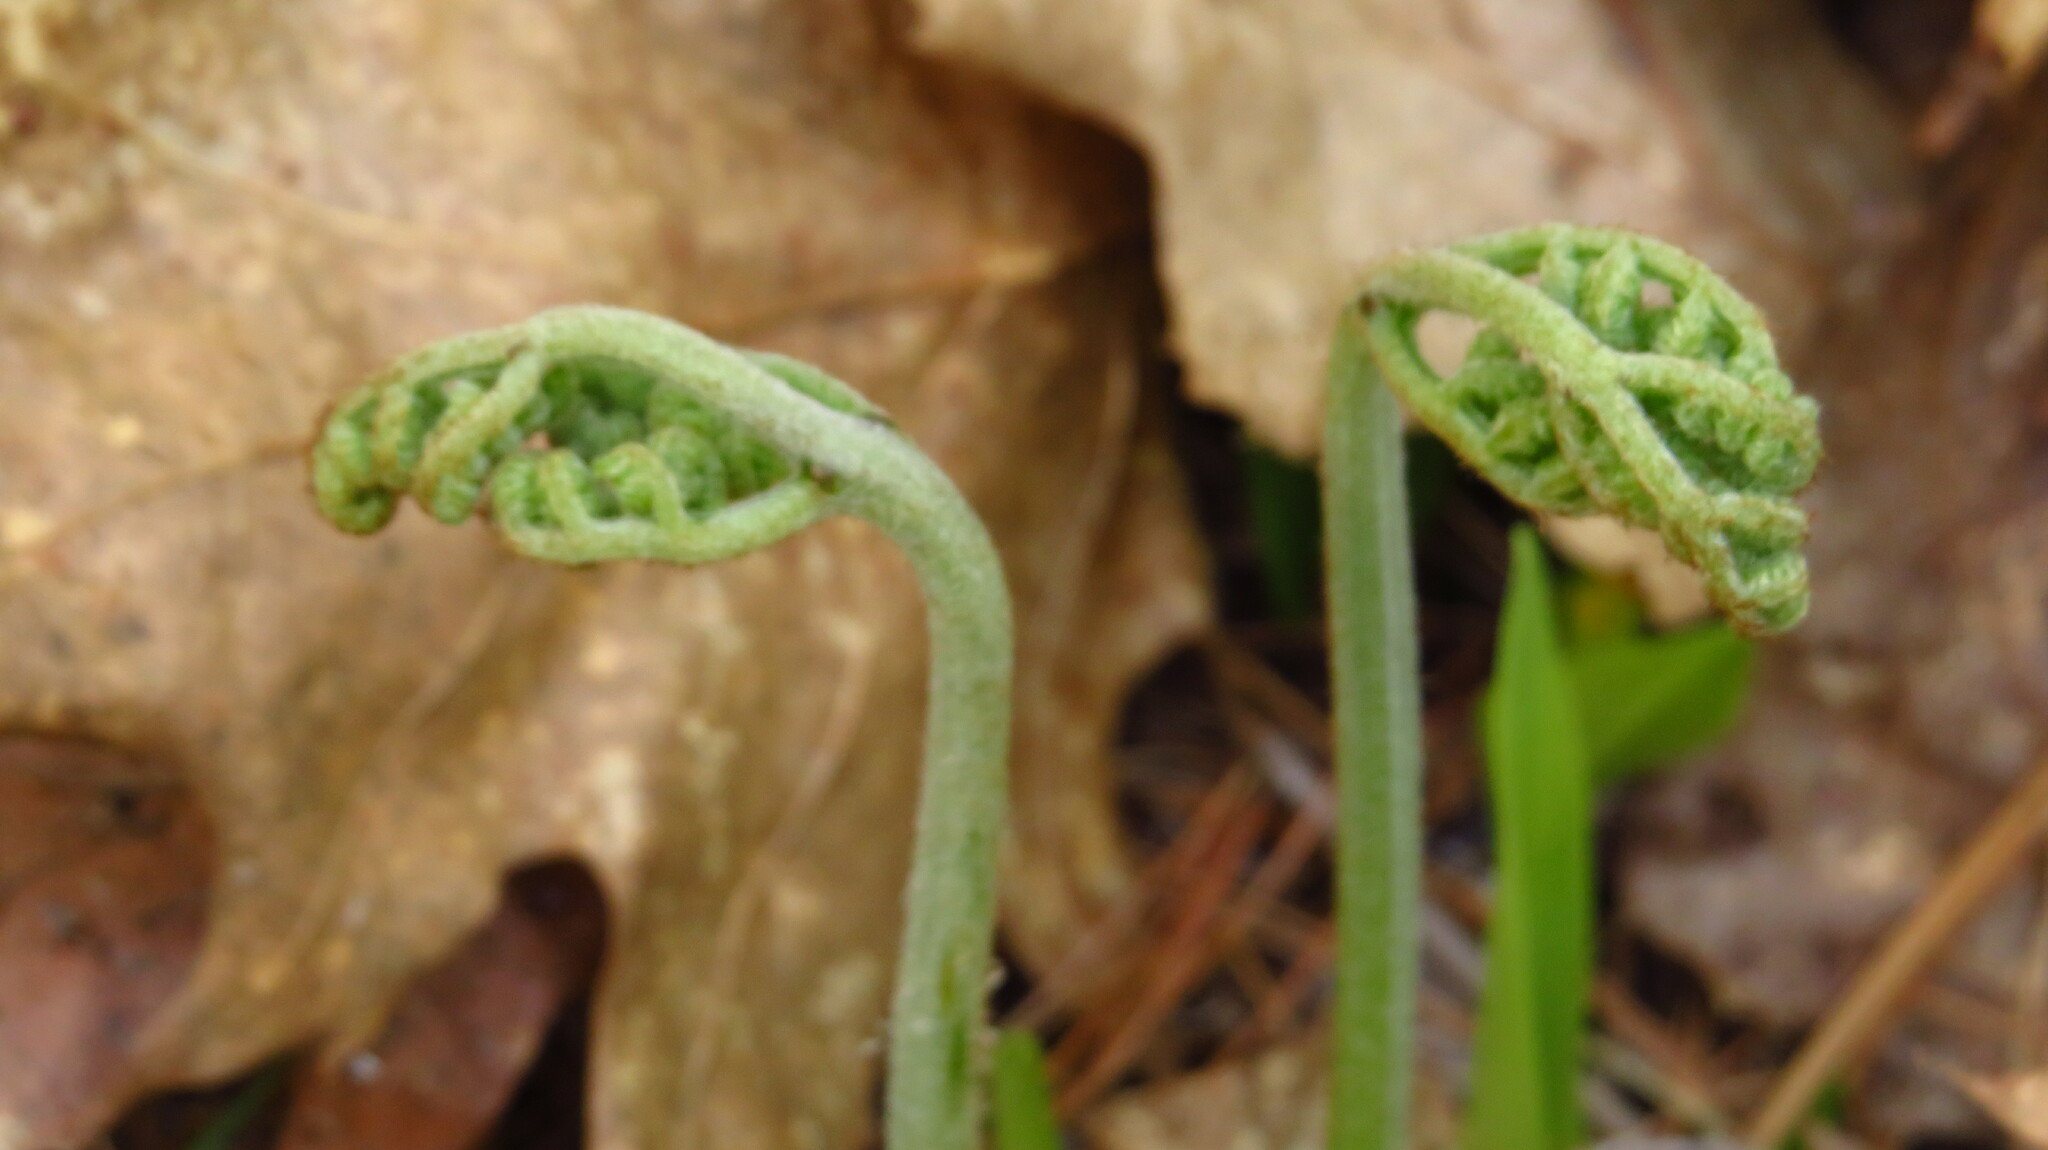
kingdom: Plantae
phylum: Tracheophyta
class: Polypodiopsida
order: Polypodiales
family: Dennstaedtiaceae
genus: Pteridium
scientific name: Pteridium aquilinum
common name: Bracken
